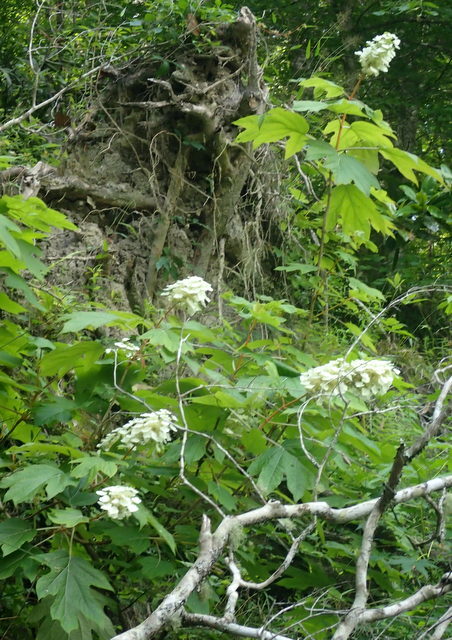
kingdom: Plantae
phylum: Tracheophyta
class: Magnoliopsida
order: Cornales
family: Hydrangeaceae
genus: Hydrangea
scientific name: Hydrangea quercifolia
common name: Oak-leaf hydrangea
